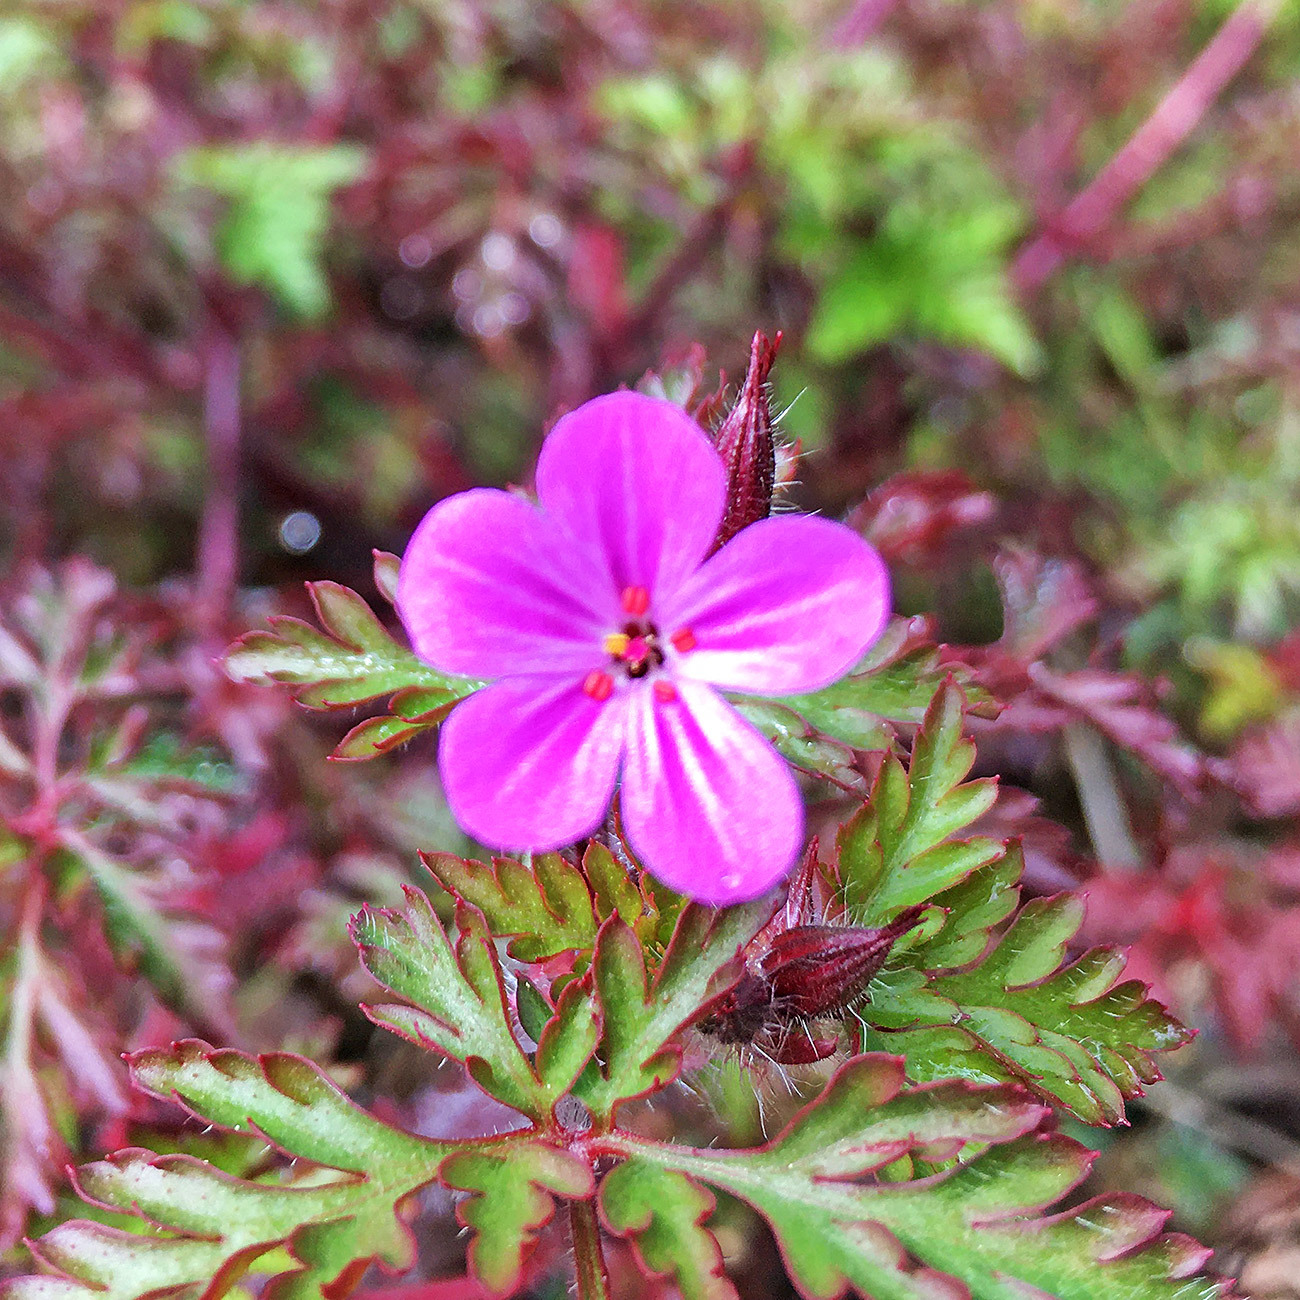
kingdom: Plantae
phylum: Tracheophyta
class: Magnoliopsida
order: Geraniales
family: Geraniaceae
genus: Geranium
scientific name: Geranium robertianum
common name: Herb-robert
